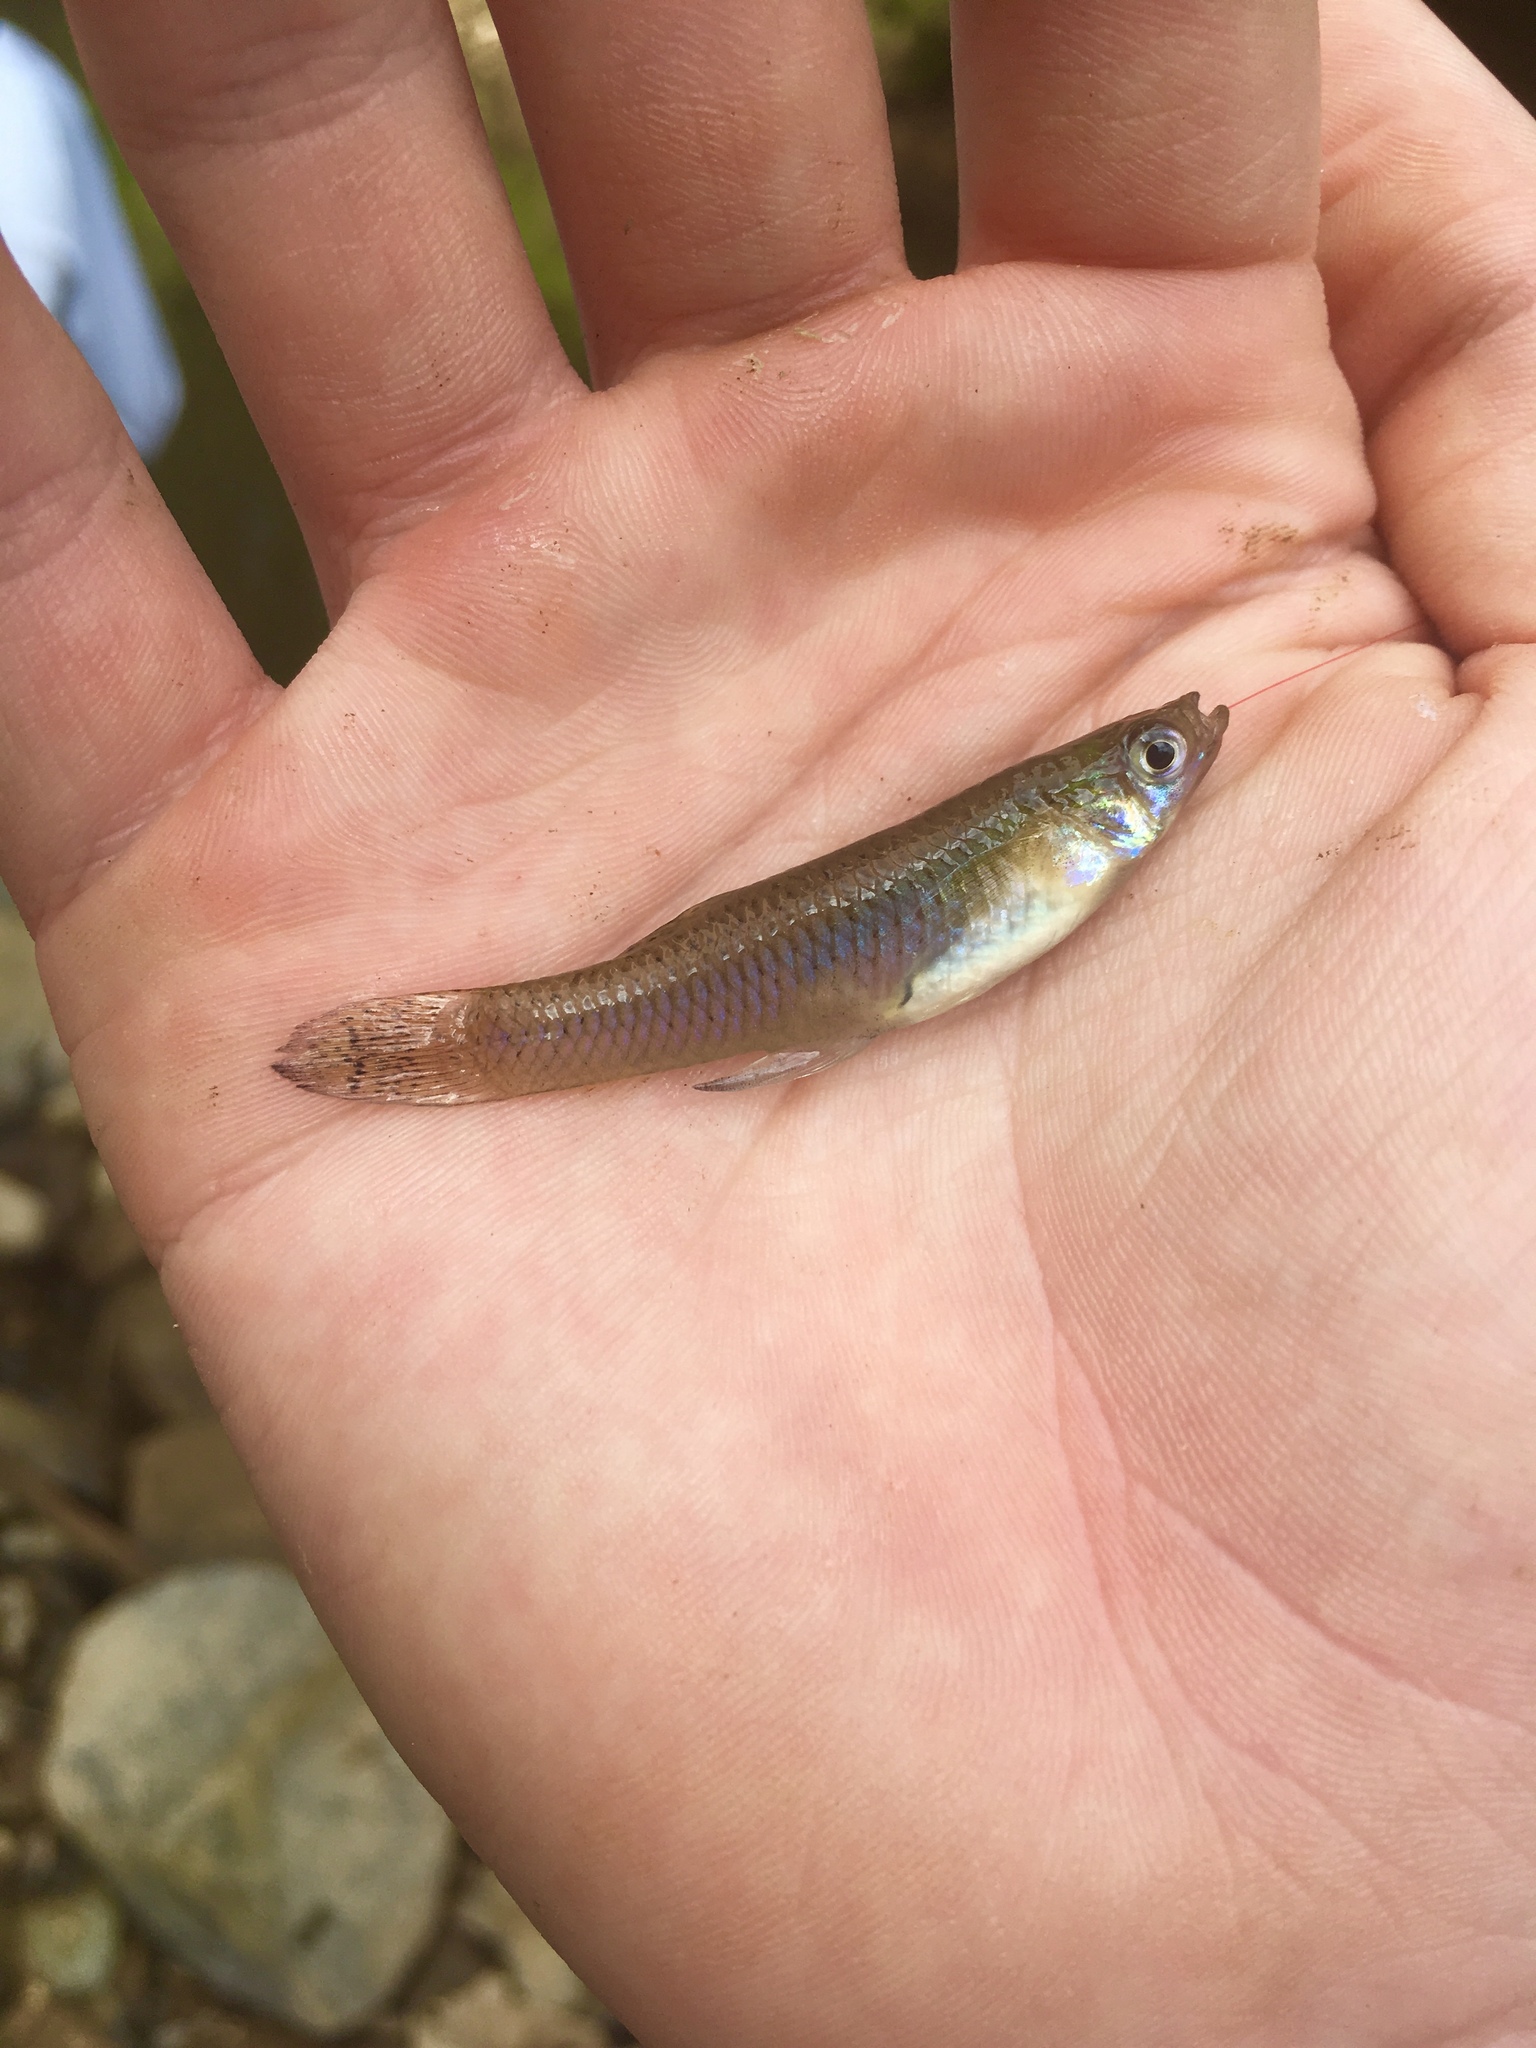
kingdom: Animalia
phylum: Chordata
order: Cyprinodontiformes
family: Poeciliidae
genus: Gambusia
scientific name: Gambusia holbrooki
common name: Eastern mosquitofish
